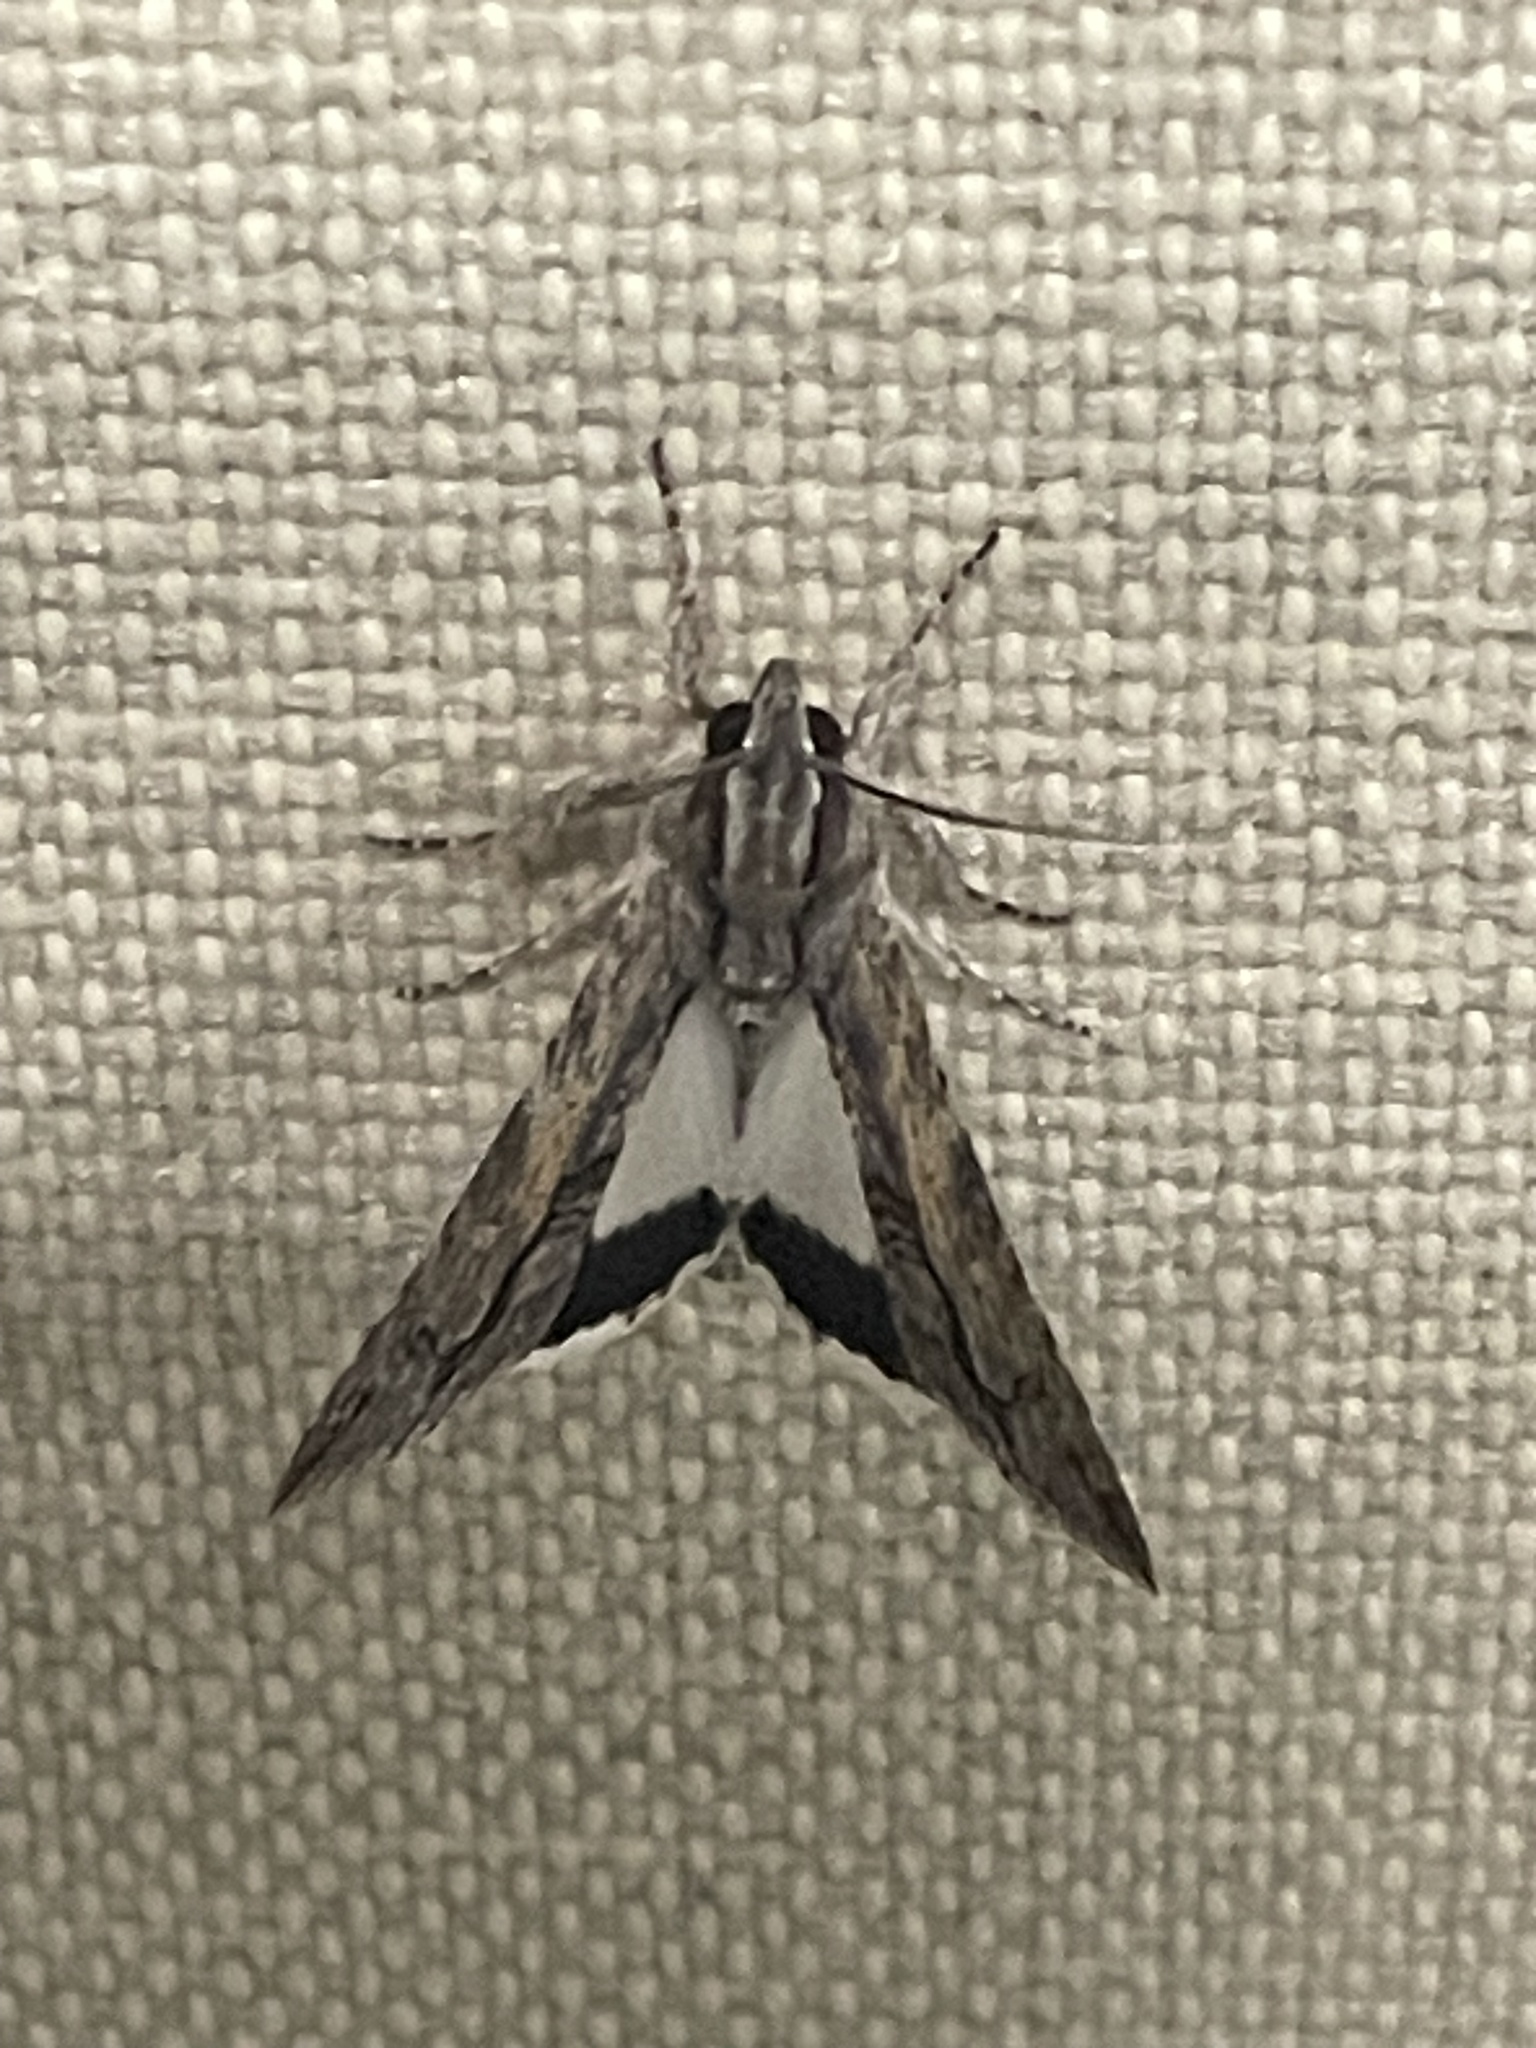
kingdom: Animalia
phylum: Arthropoda
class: Insecta
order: Lepidoptera
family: Erebidae
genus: Melipotis
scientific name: Melipotis acontioides
